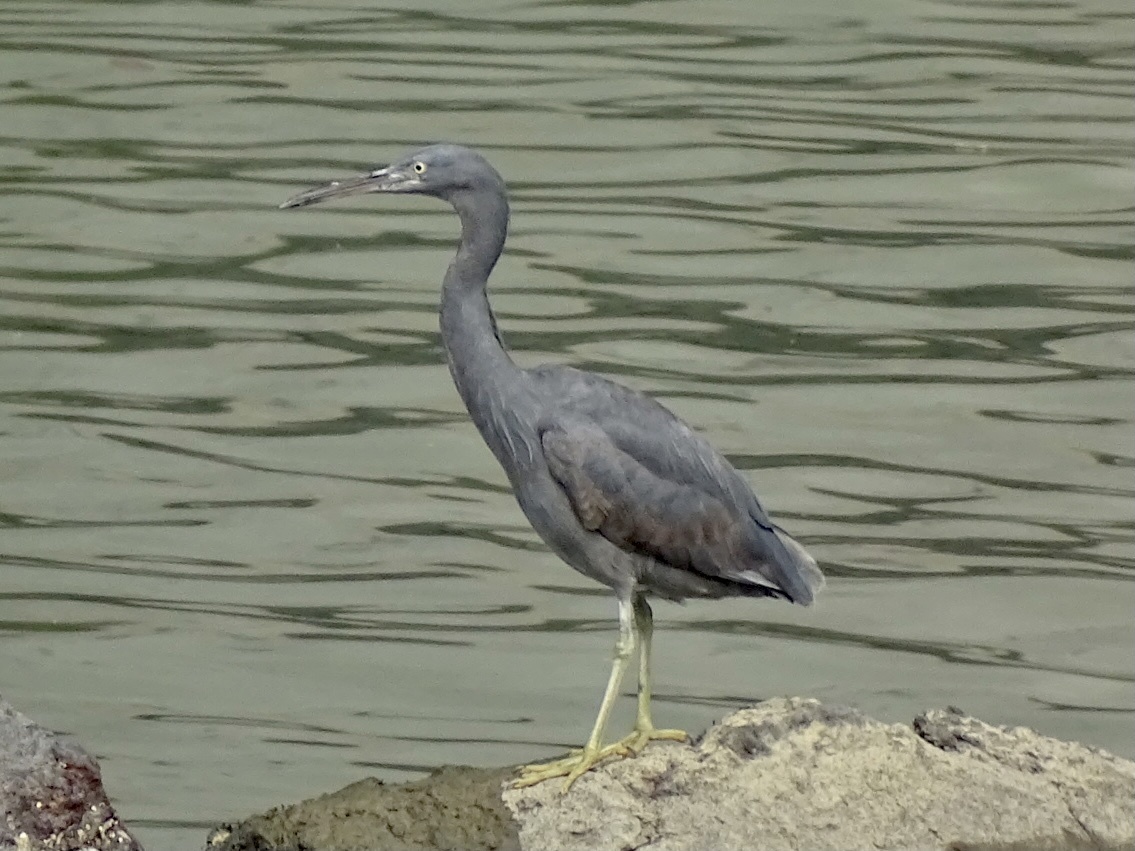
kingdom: Animalia
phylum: Chordata
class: Aves
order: Pelecaniformes
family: Ardeidae
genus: Egretta
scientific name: Egretta sacra
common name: Pacific reef heron
